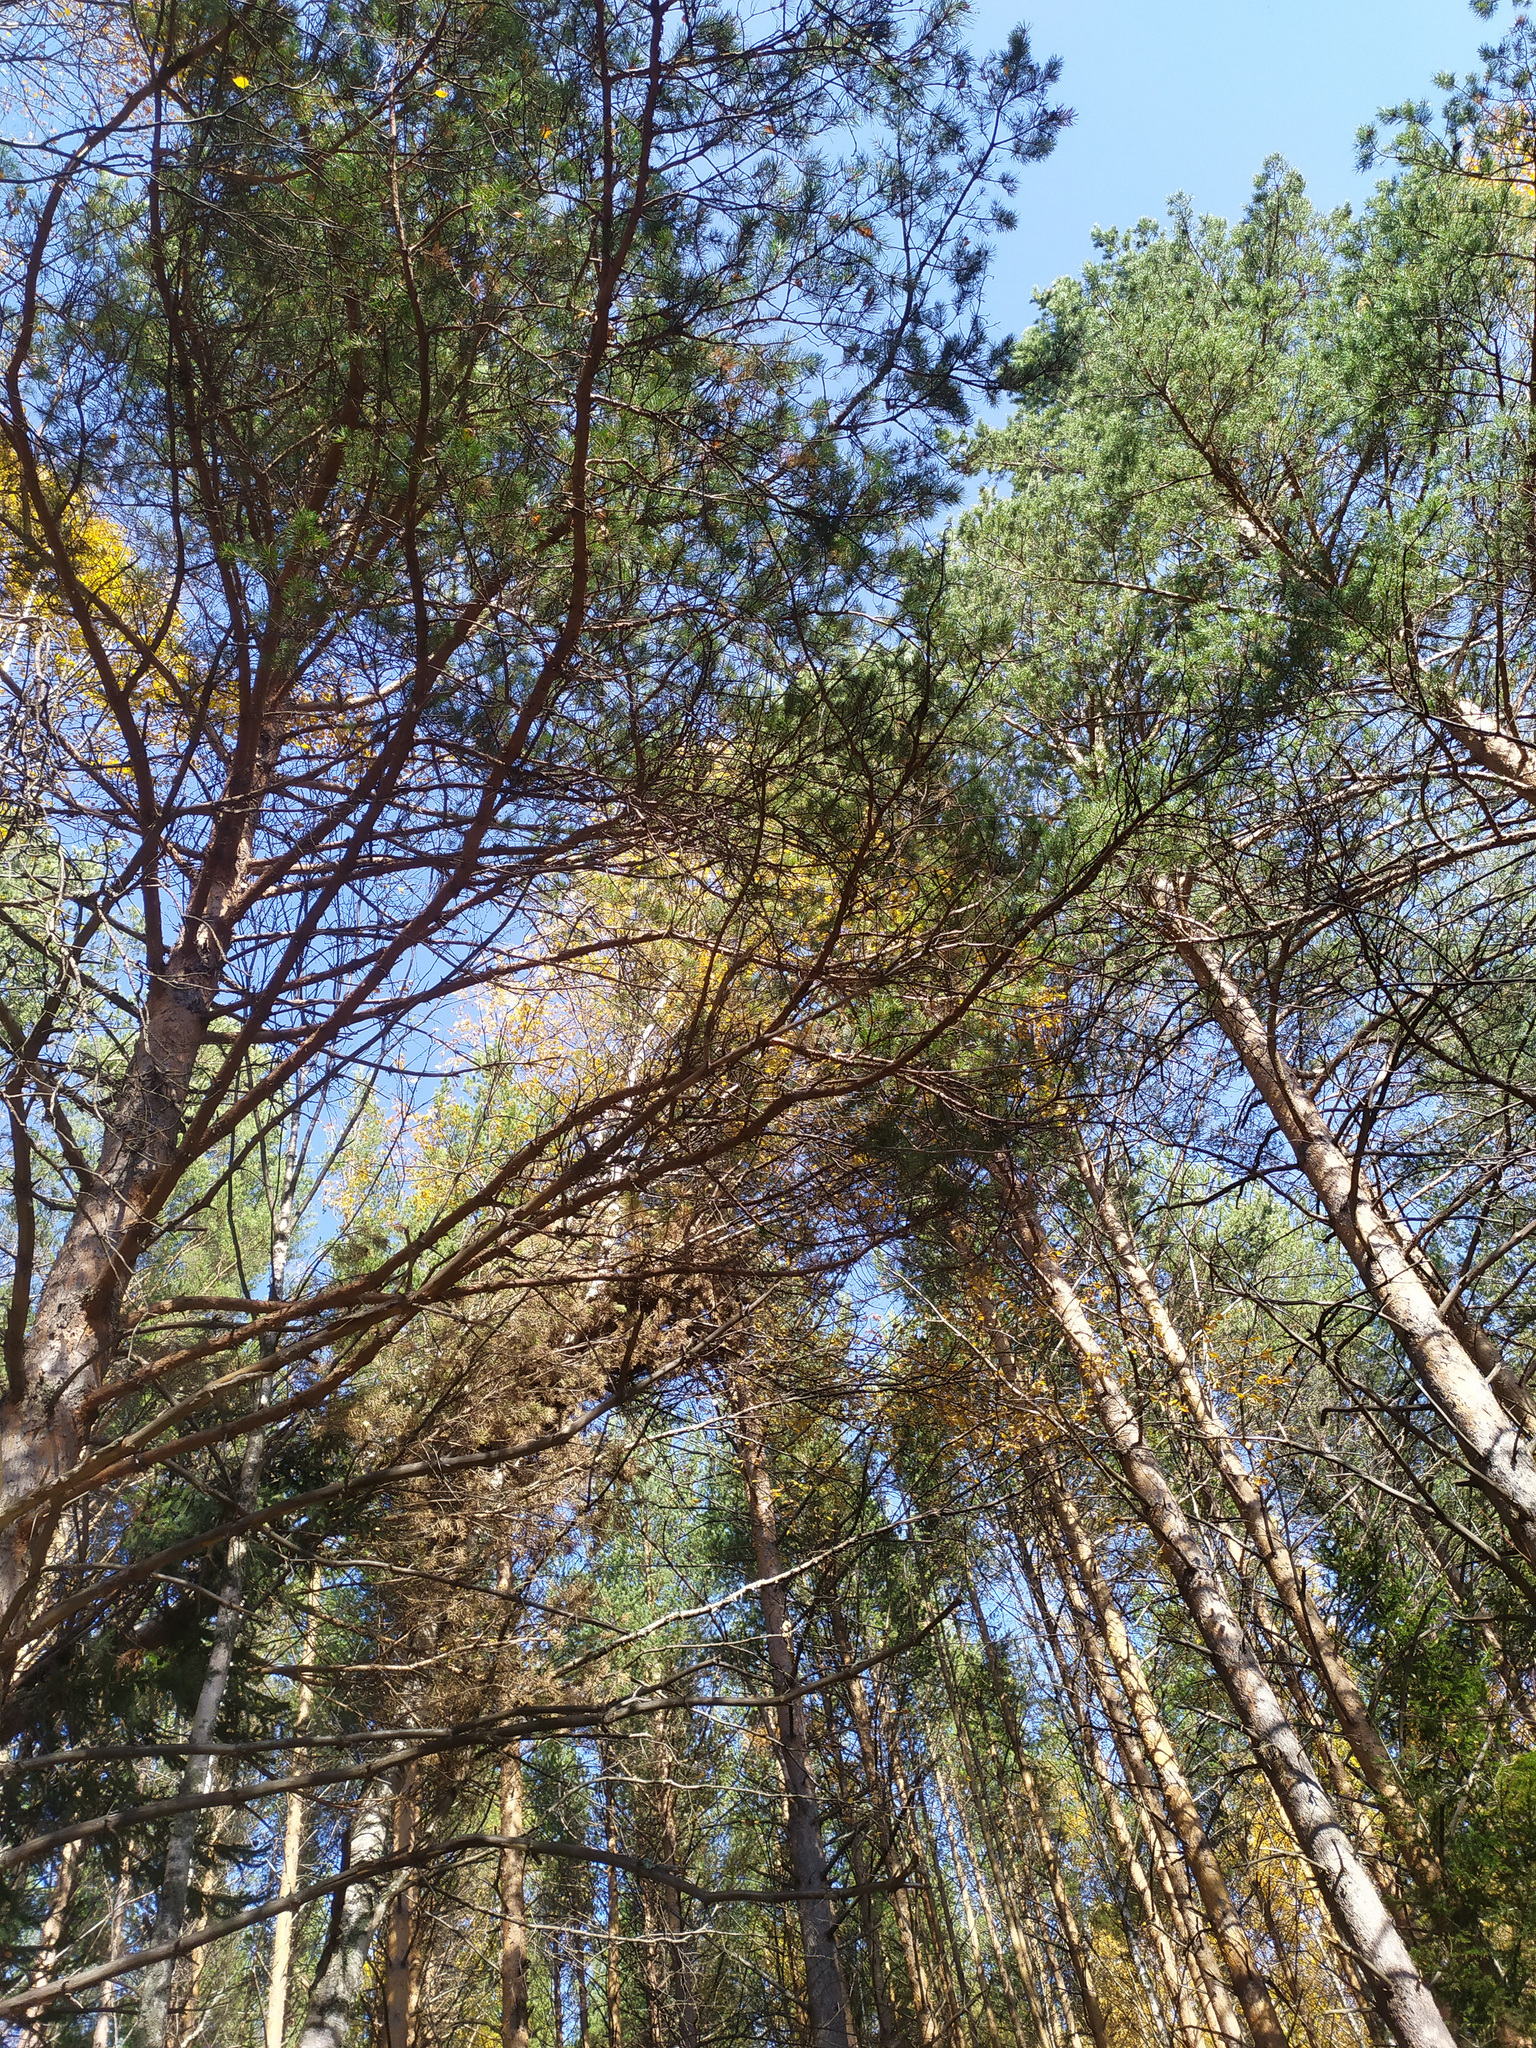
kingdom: Plantae
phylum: Tracheophyta
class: Pinopsida
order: Pinales
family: Pinaceae
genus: Pinus
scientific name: Pinus sylvestris
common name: Scots pine
